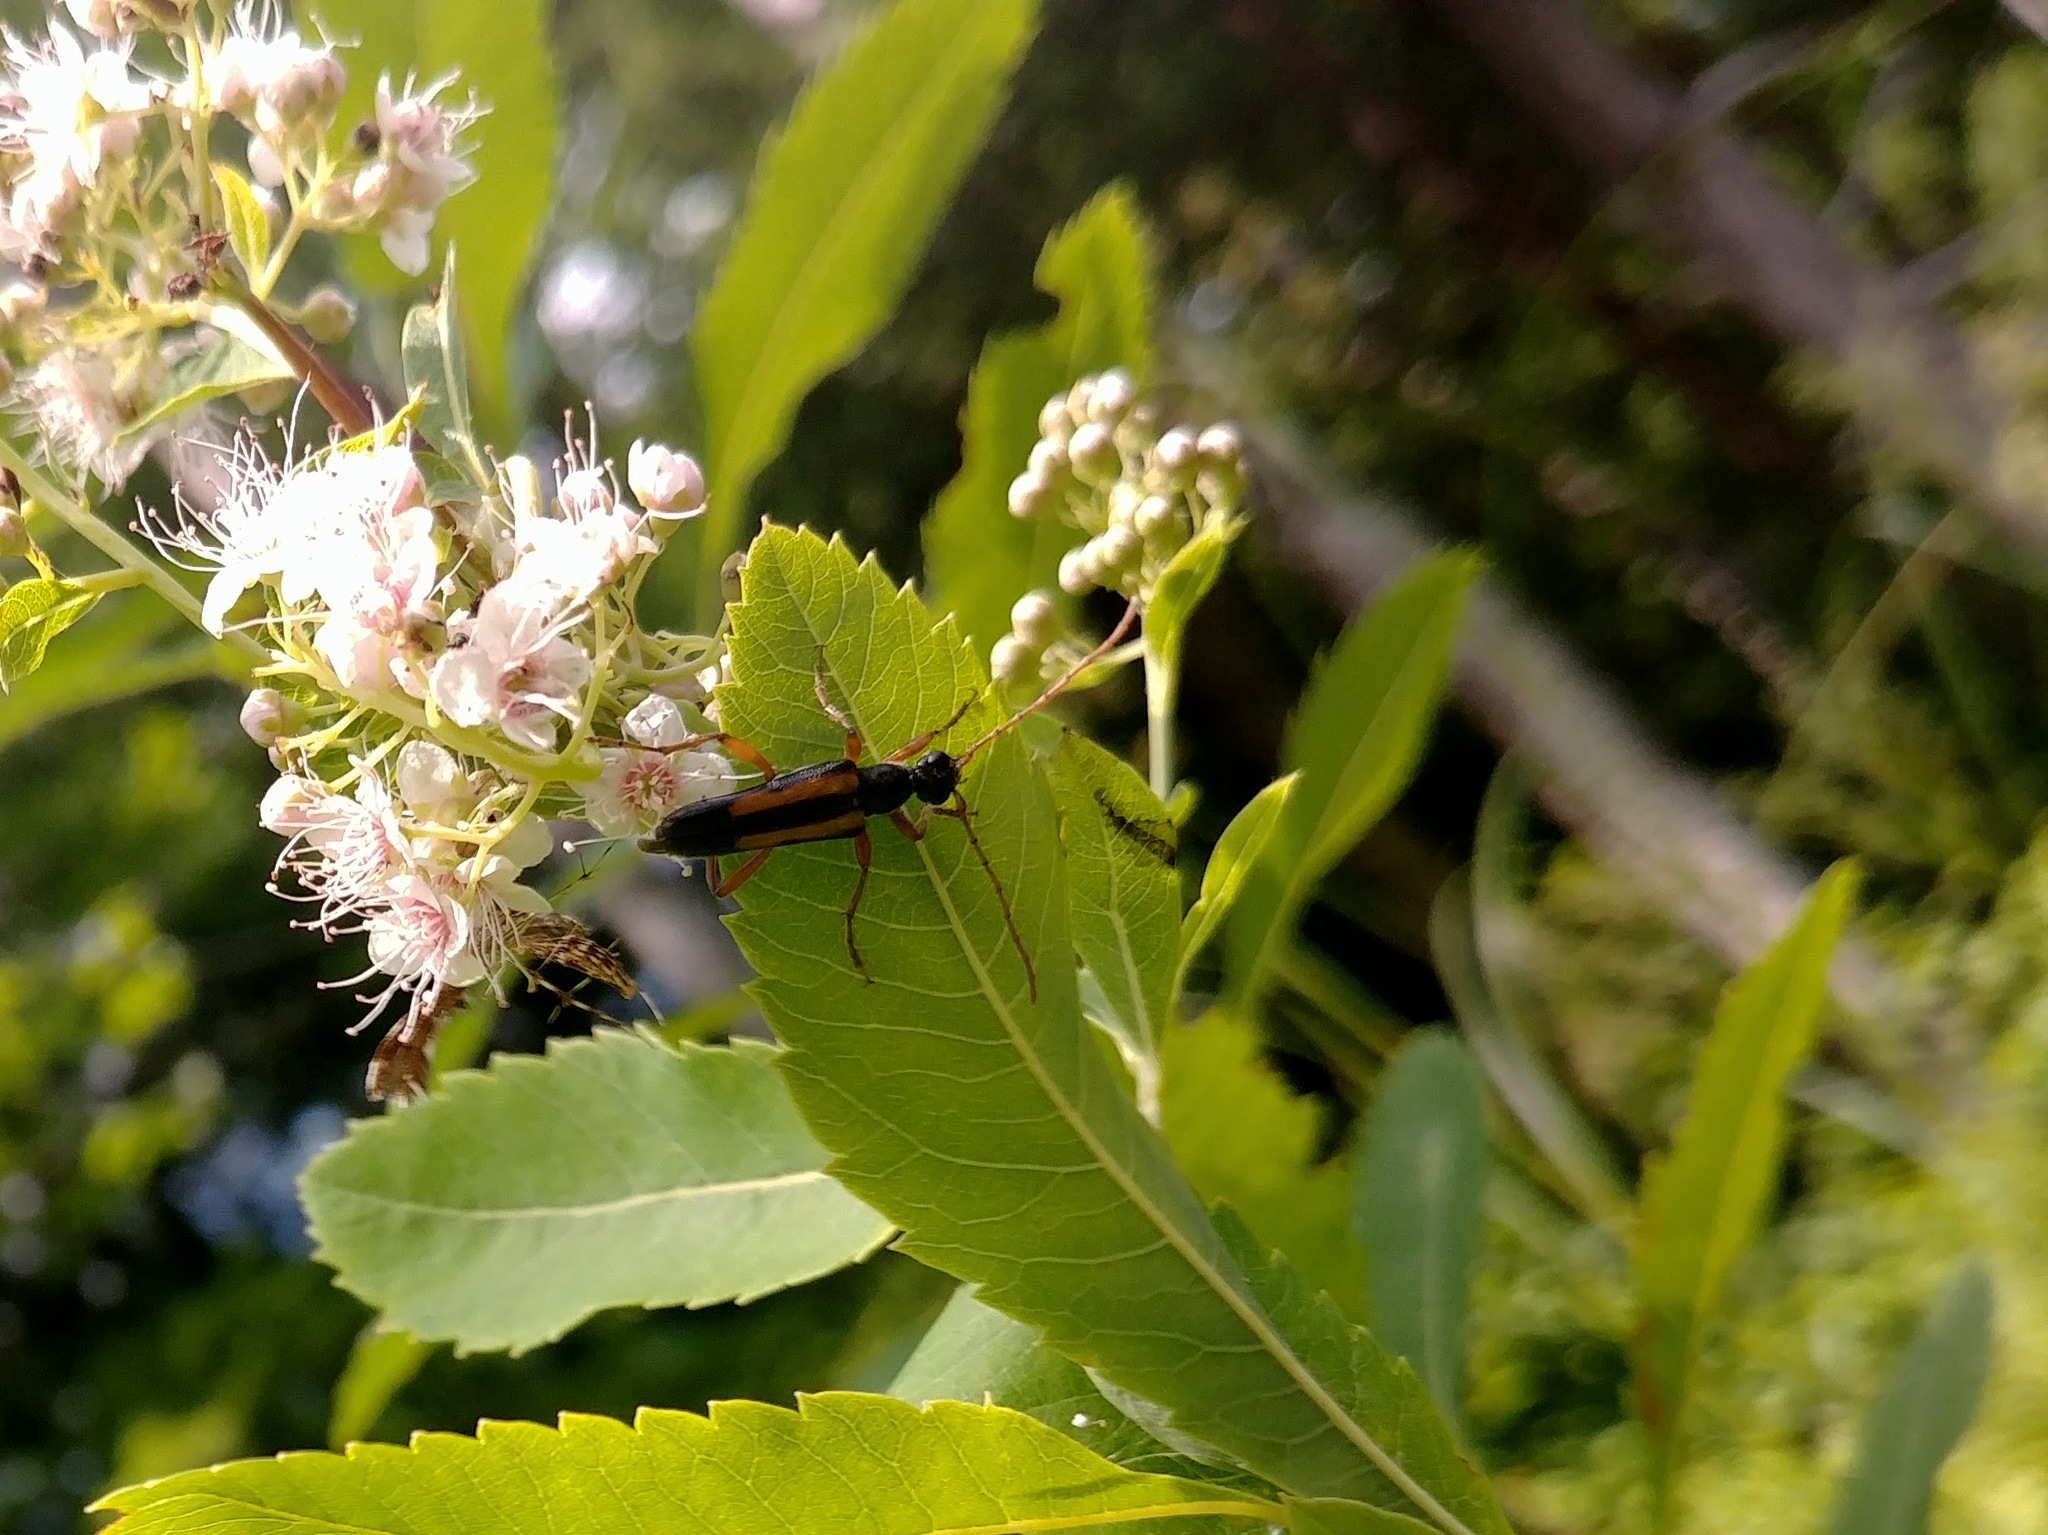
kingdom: Animalia
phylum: Arthropoda
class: Insecta
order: Coleoptera
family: Cerambycidae
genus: Strangalepta
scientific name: Strangalepta abbreviata
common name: Strangalepta flower longhorn beetle
